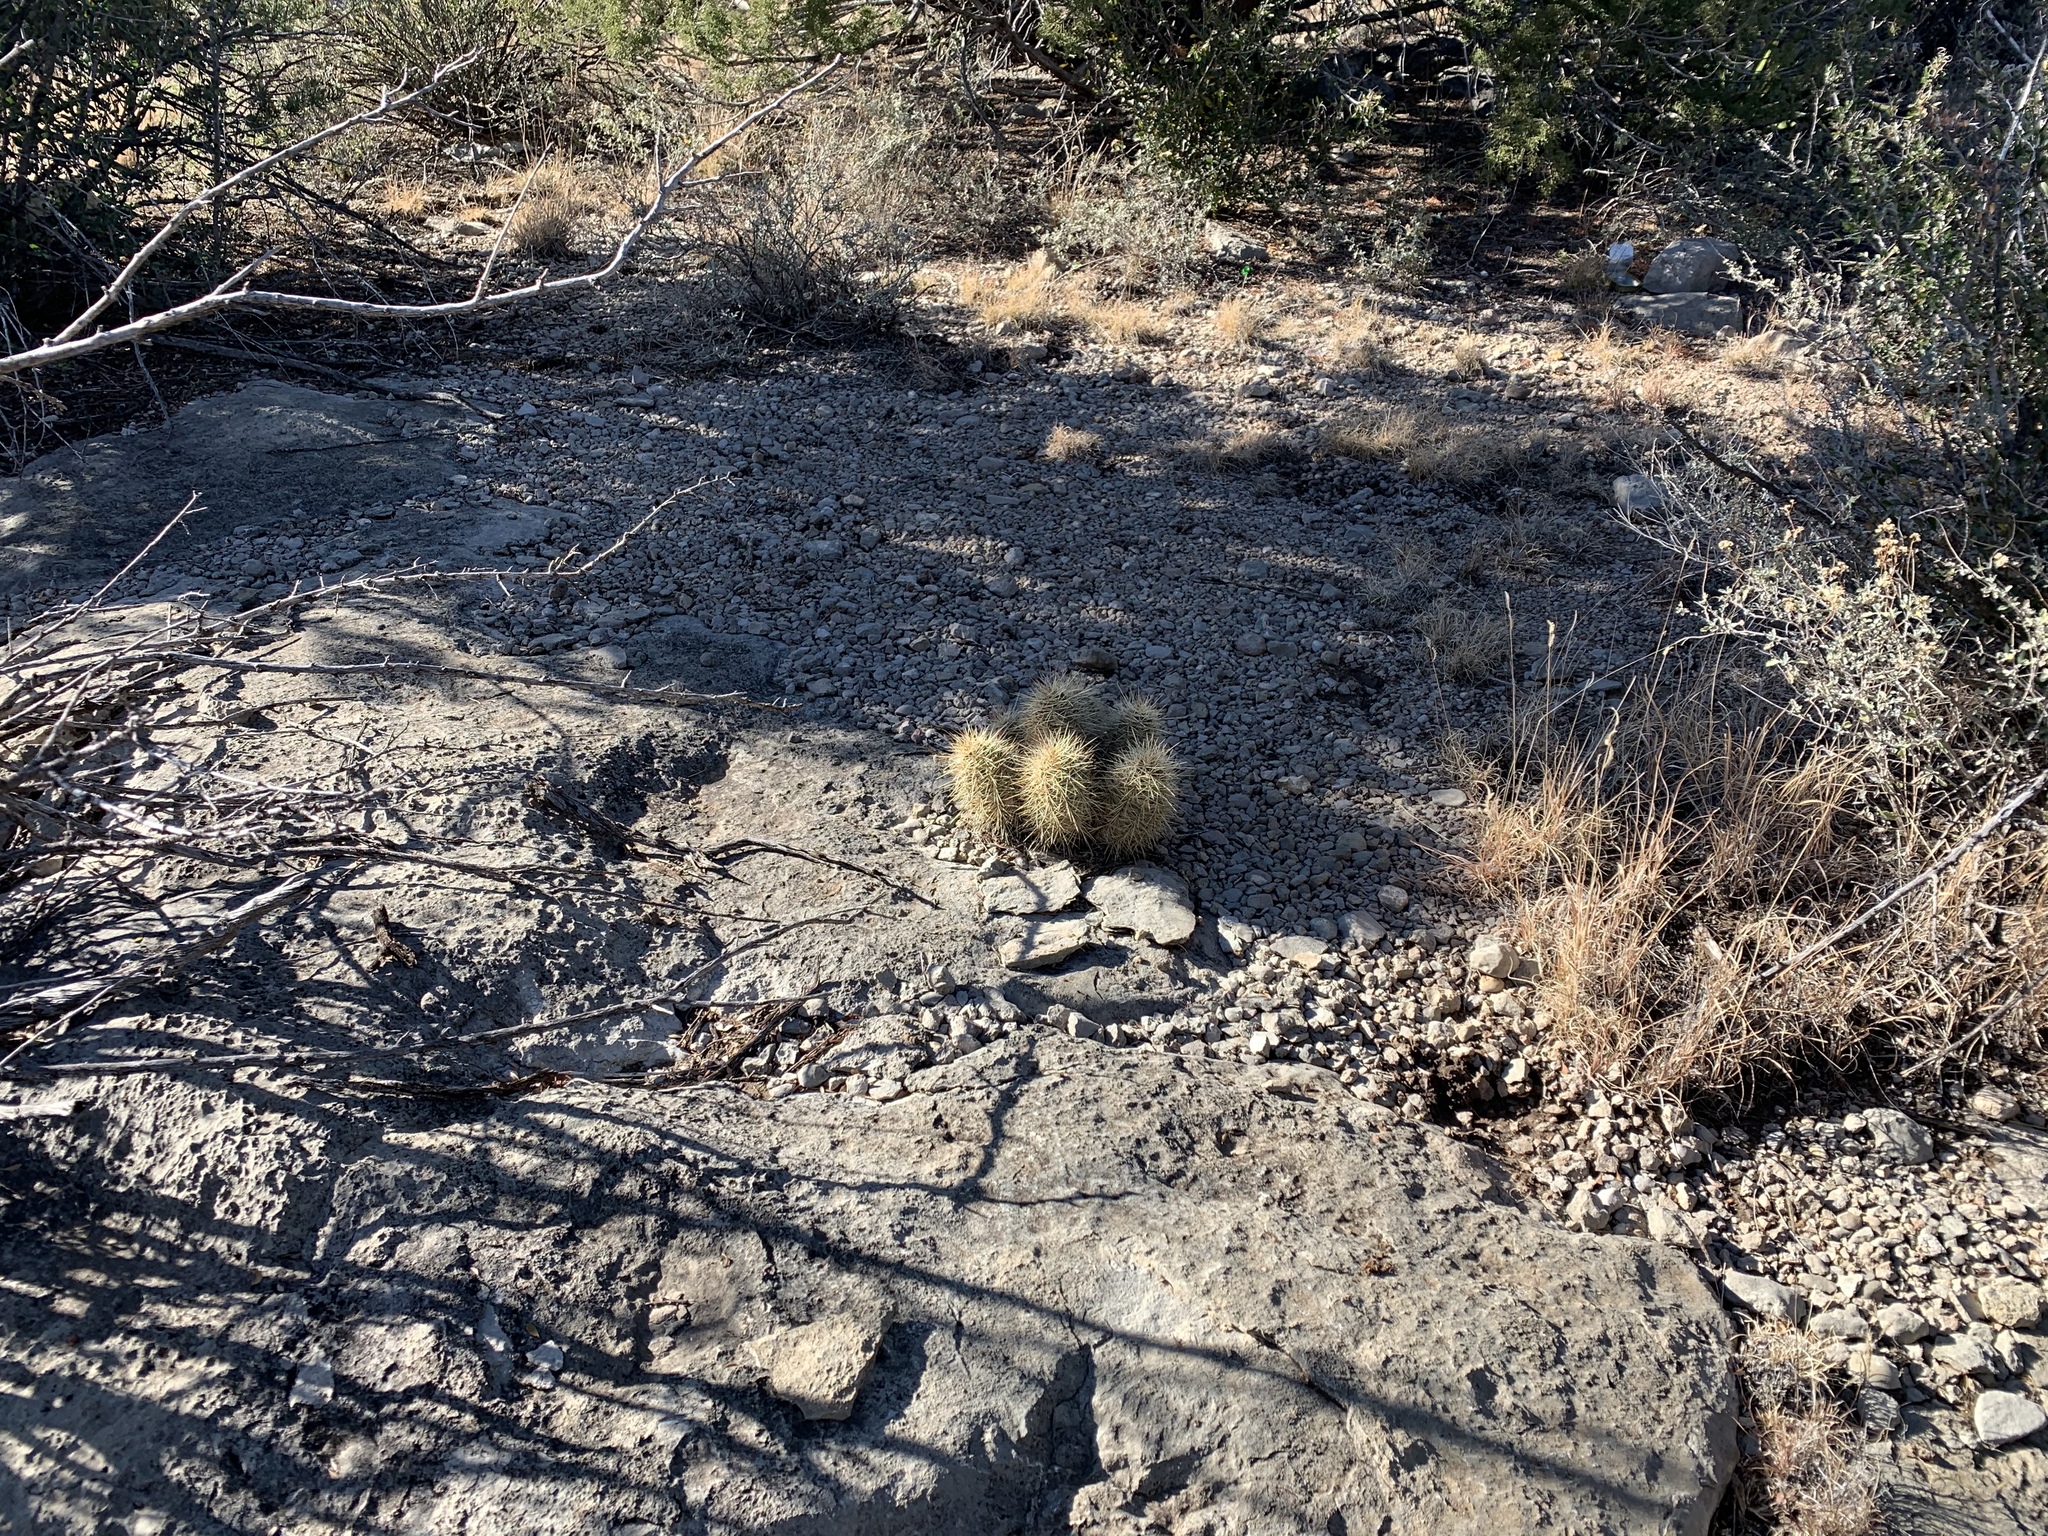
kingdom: Plantae
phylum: Tracheophyta
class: Magnoliopsida
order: Caryophyllales
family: Cactaceae
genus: Echinocereus
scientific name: Echinocereus coccineus
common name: Scarlet hedgehog cactus
